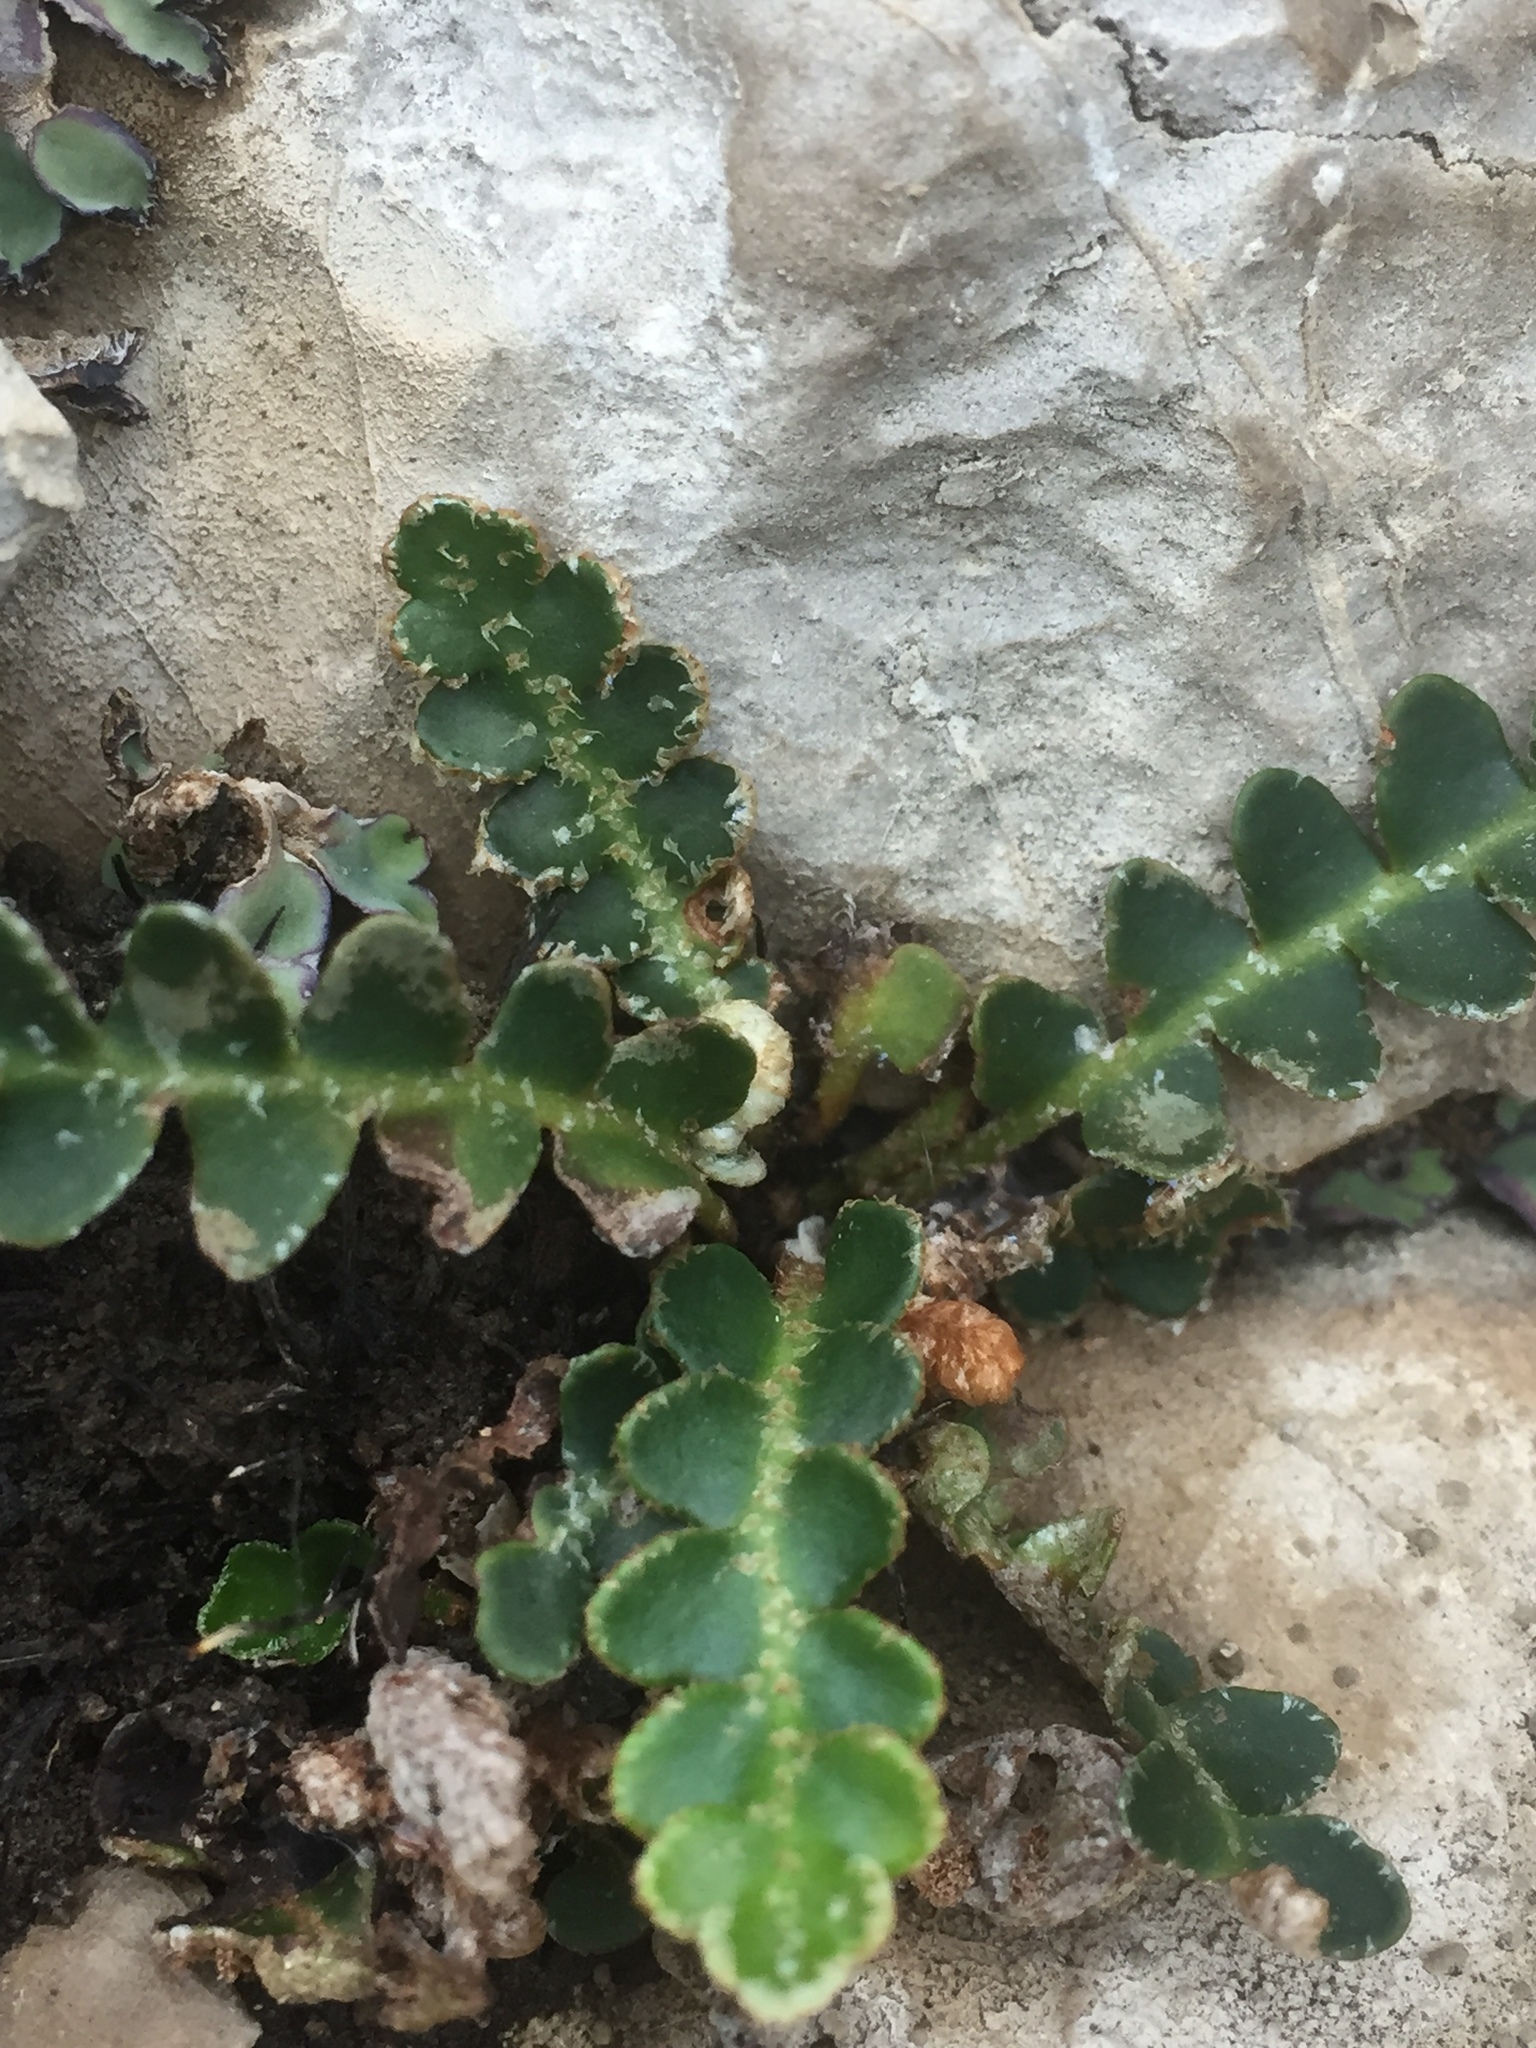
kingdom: Plantae
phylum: Tracheophyta
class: Polypodiopsida
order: Polypodiales
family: Aspleniaceae
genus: Asplenium
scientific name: Asplenium ceterach
